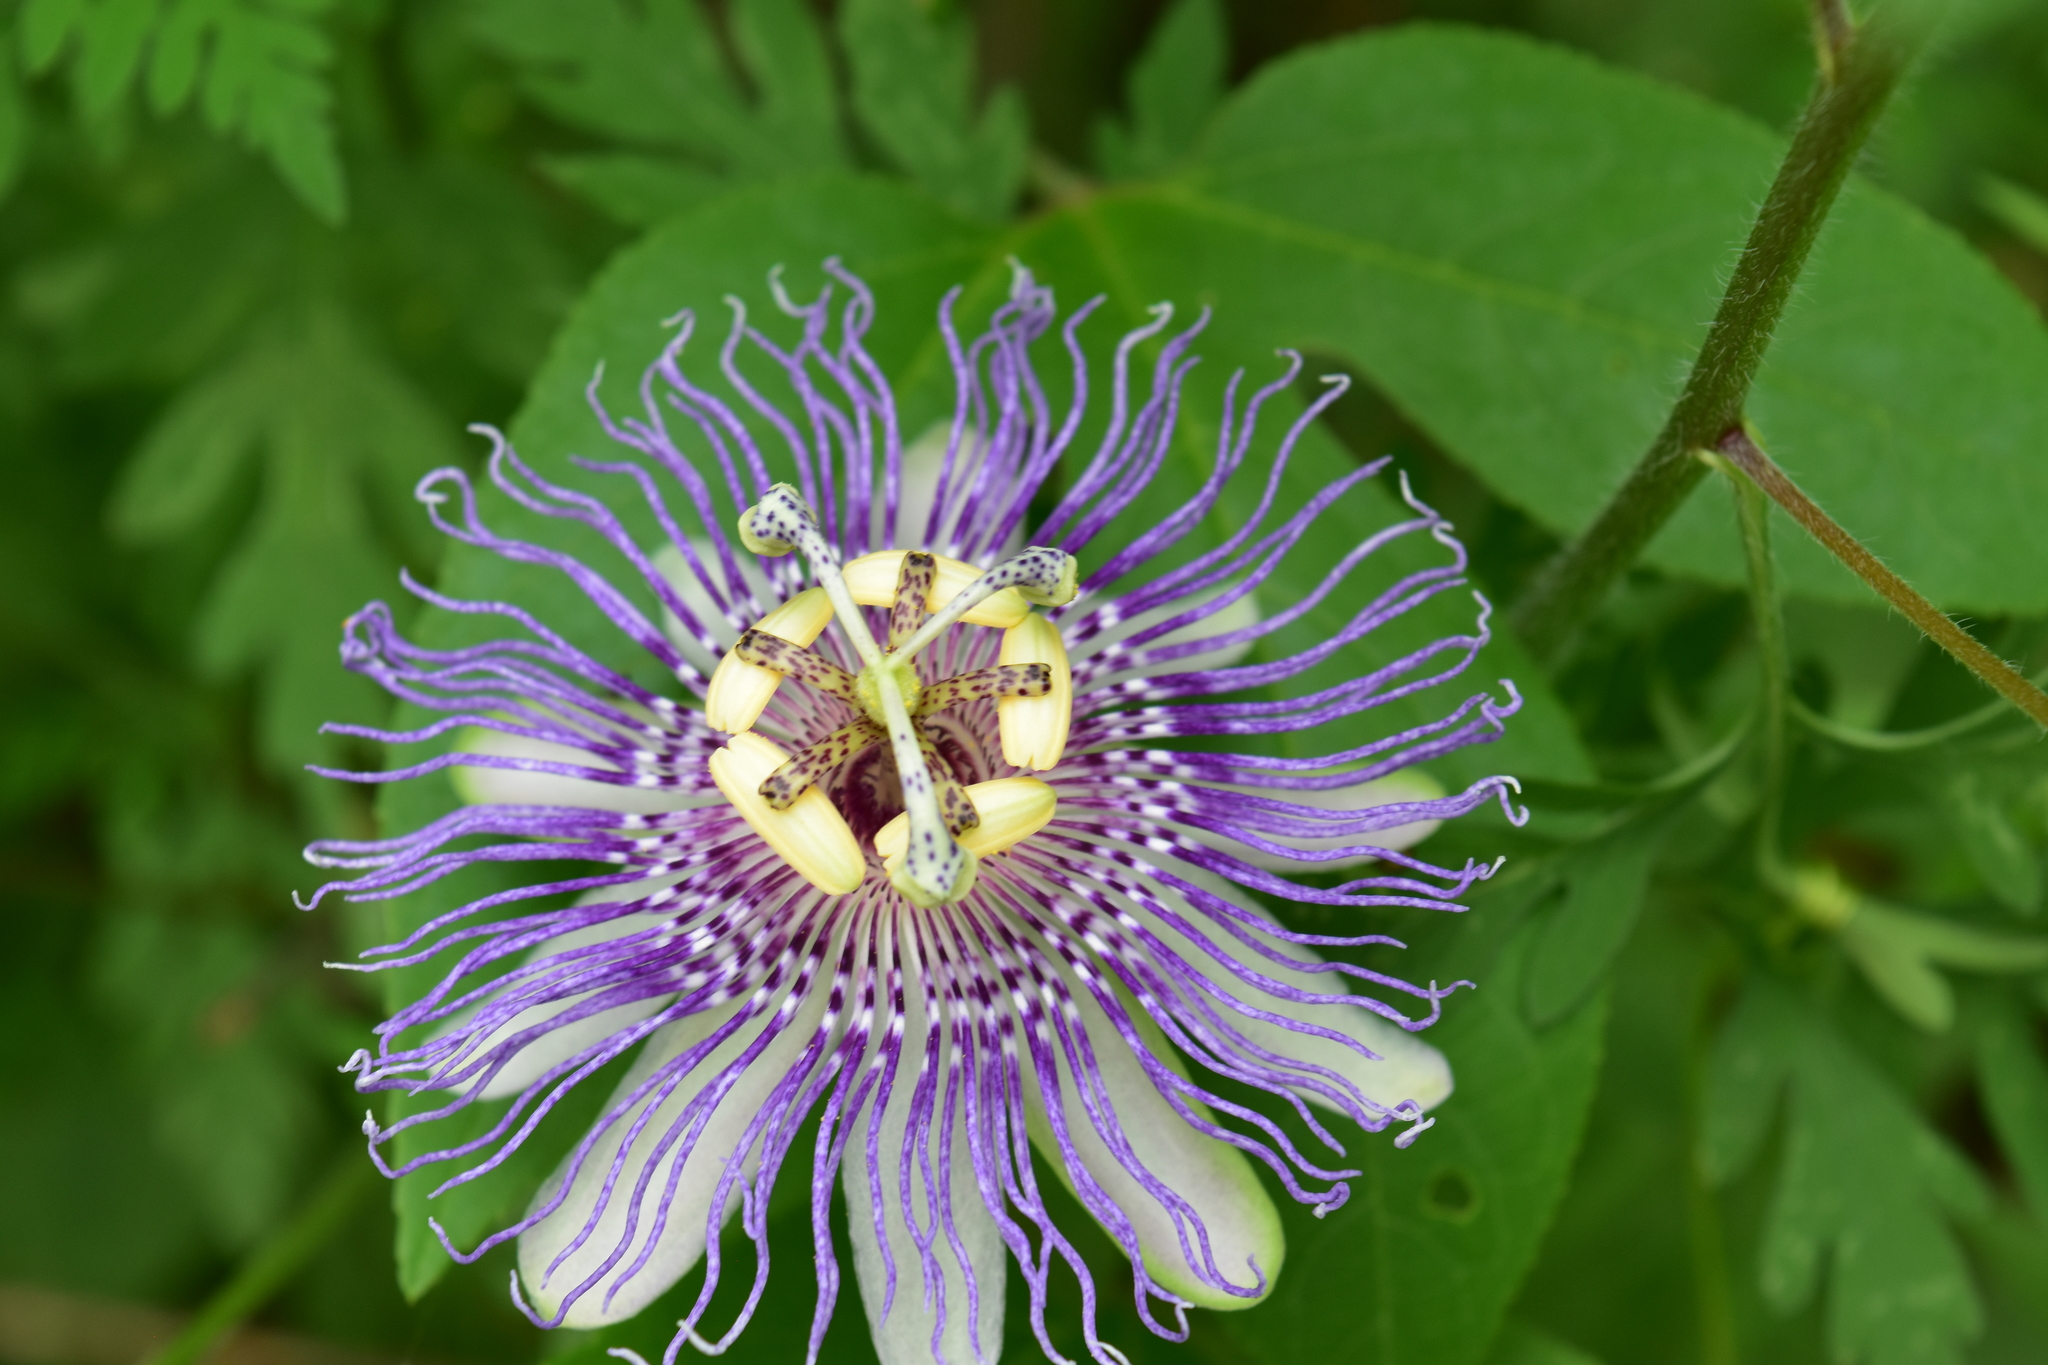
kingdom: Plantae
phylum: Tracheophyta
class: Magnoliopsida
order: Malpighiales
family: Passifloraceae
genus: Passiflora
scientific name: Passiflora incarnata
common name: Apricot-vine
